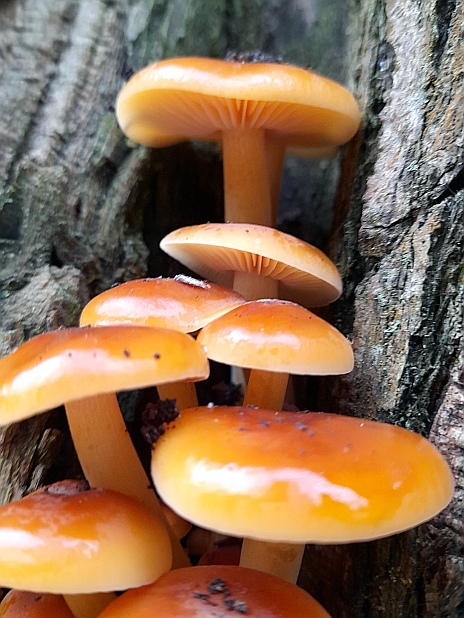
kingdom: Fungi
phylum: Basidiomycota
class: Agaricomycetes
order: Agaricales
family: Physalacriaceae
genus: Flammulina
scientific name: Flammulina
